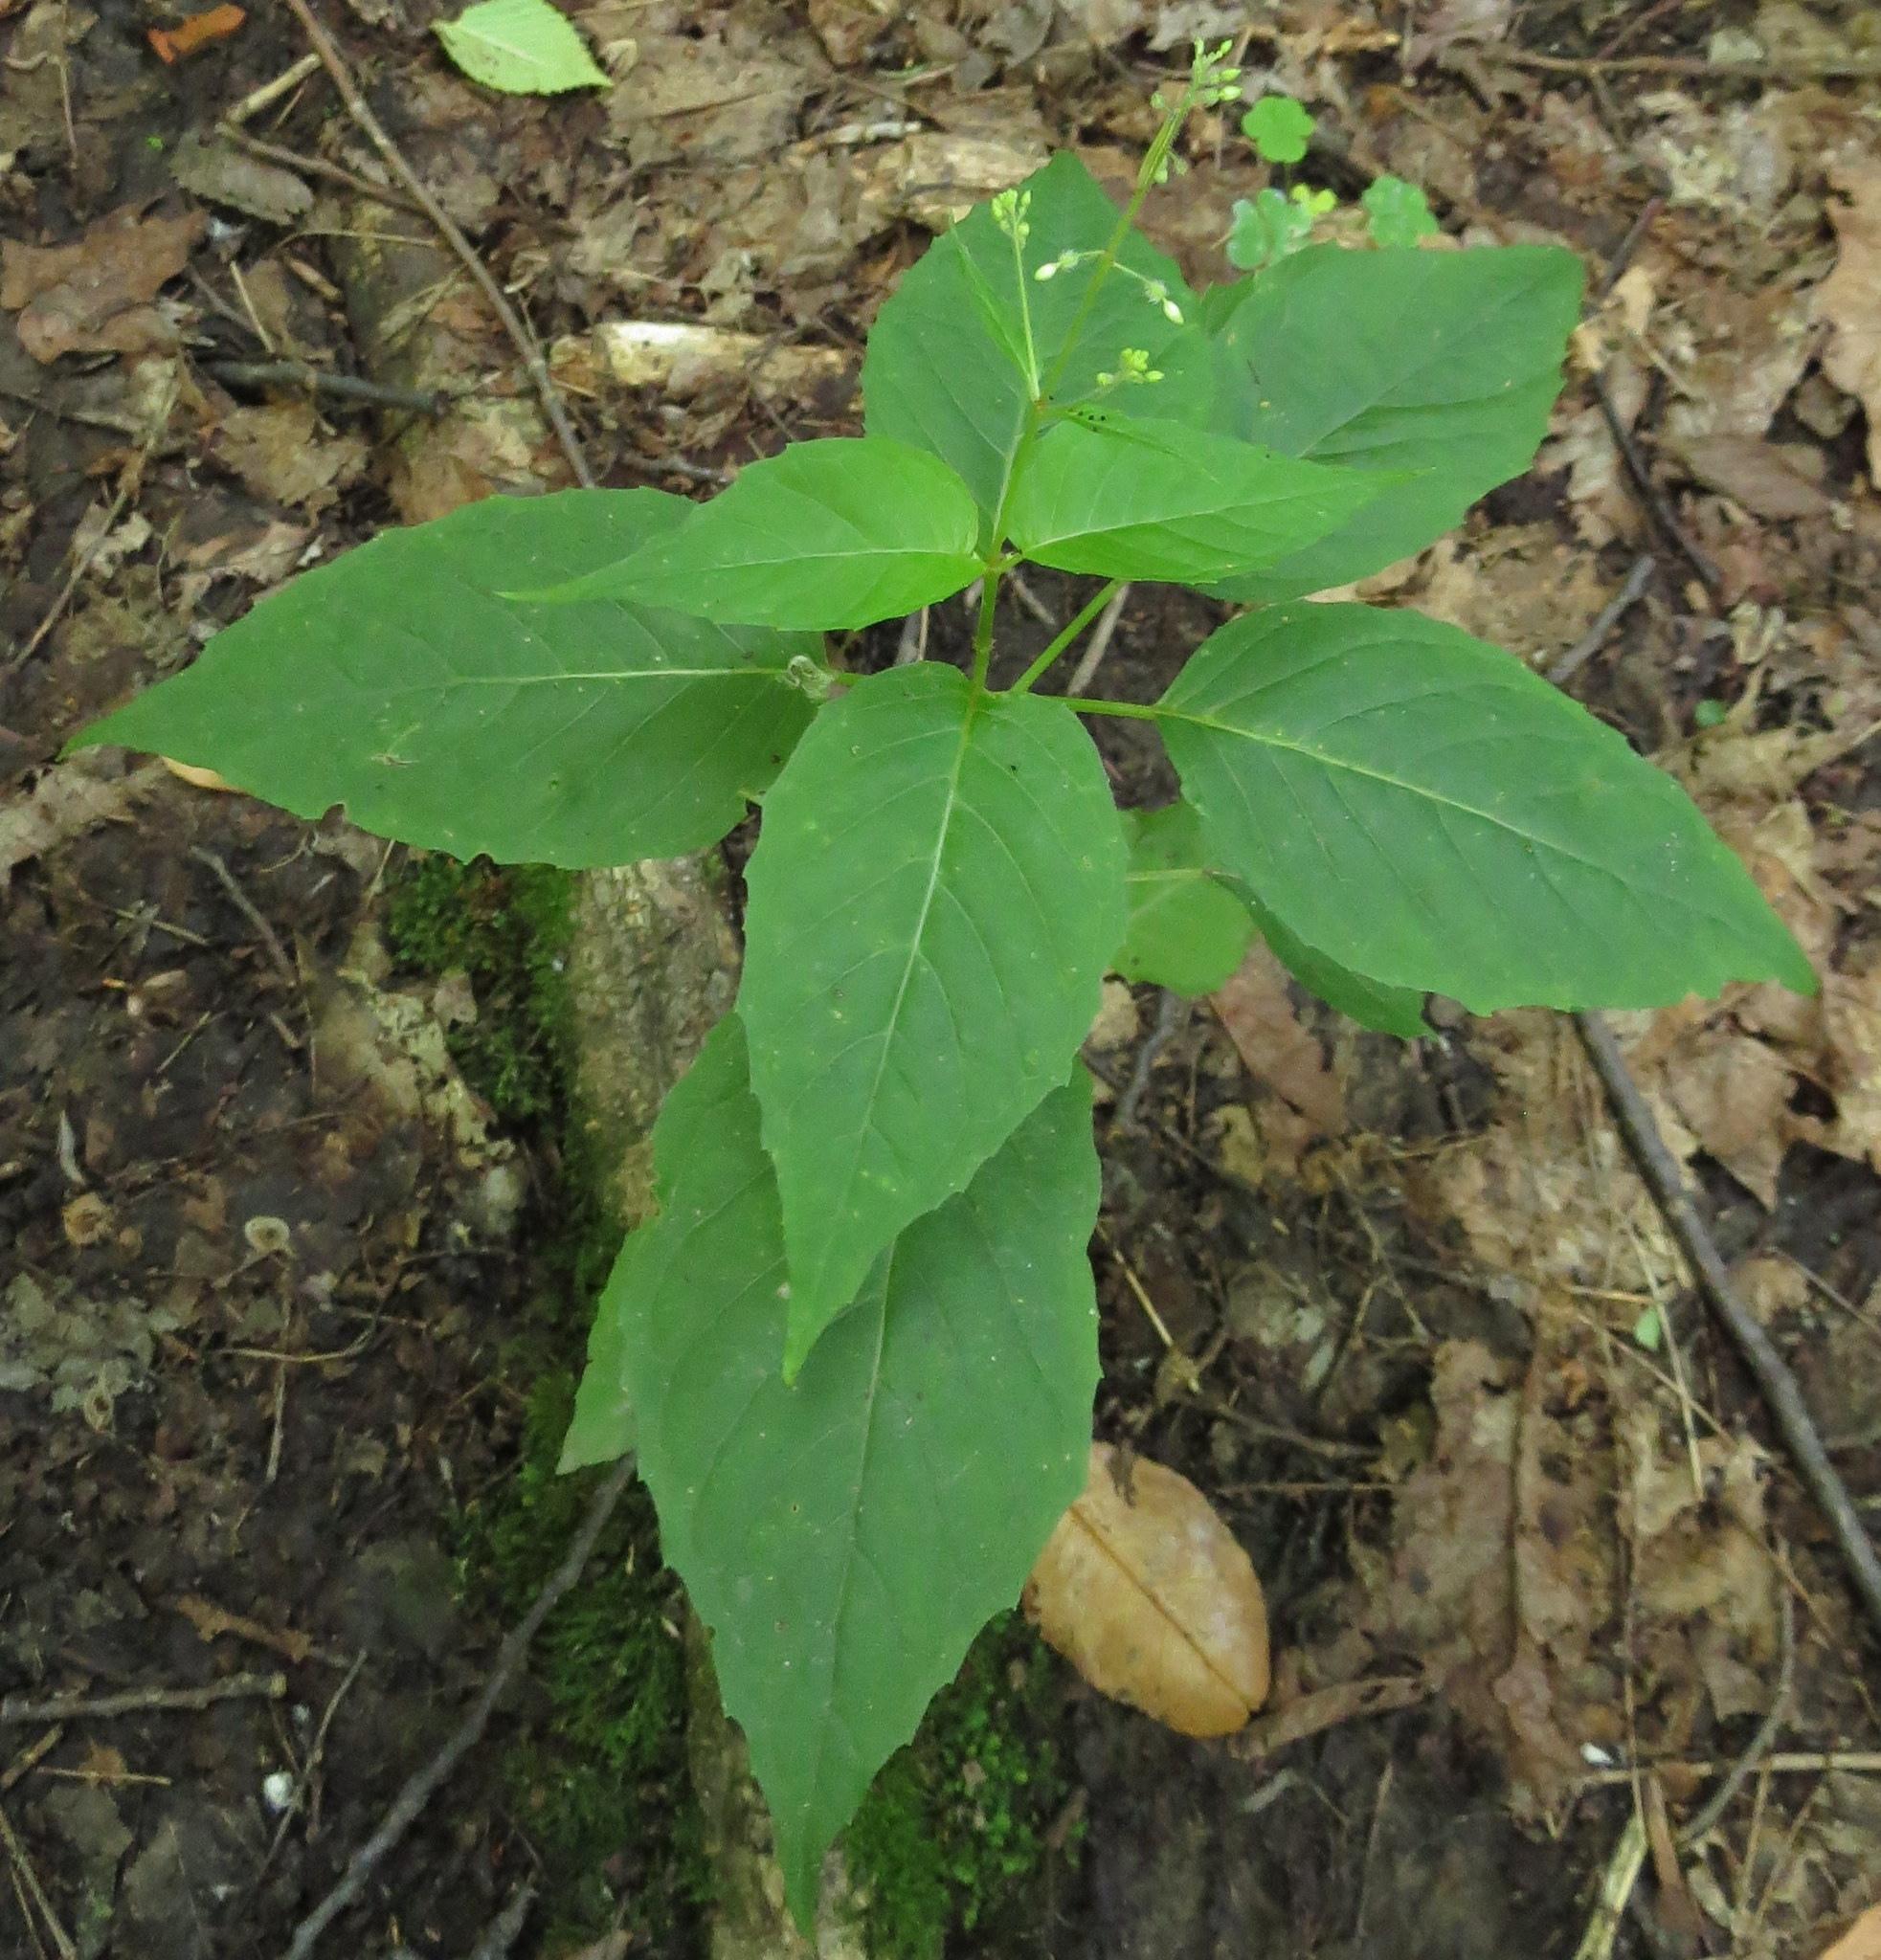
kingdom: Plantae
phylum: Tracheophyta
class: Magnoliopsida
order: Myrtales
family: Onagraceae
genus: Circaea
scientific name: Circaea canadensis
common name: Broad-leaved enchanter's nightshade
